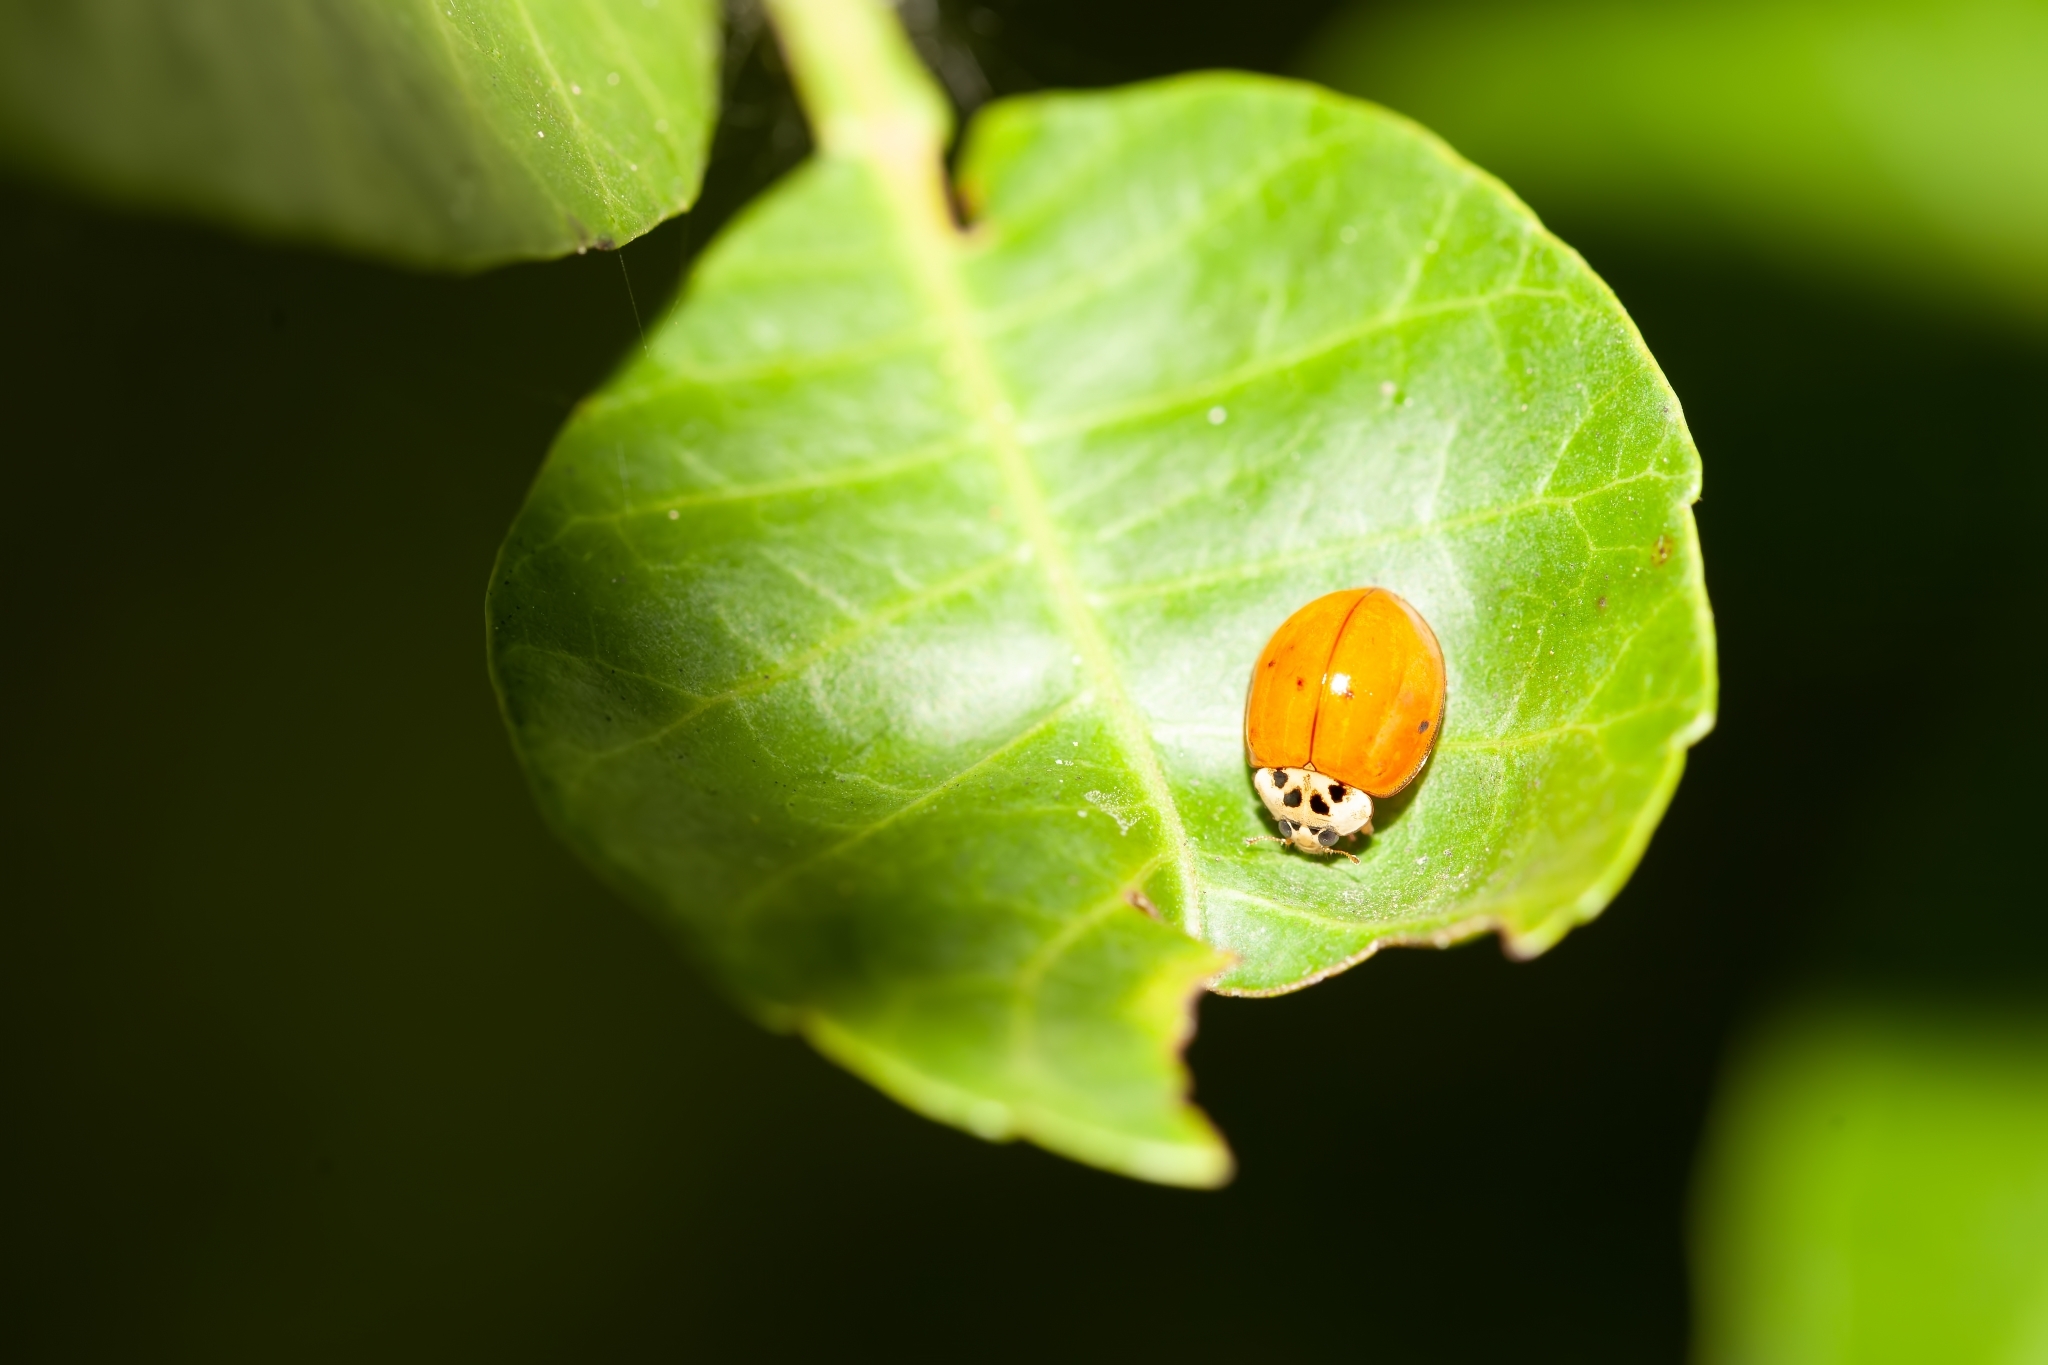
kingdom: Animalia
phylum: Arthropoda
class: Insecta
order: Coleoptera
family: Coccinellidae
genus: Harmonia
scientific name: Harmonia axyridis
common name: Harlequin ladybird
